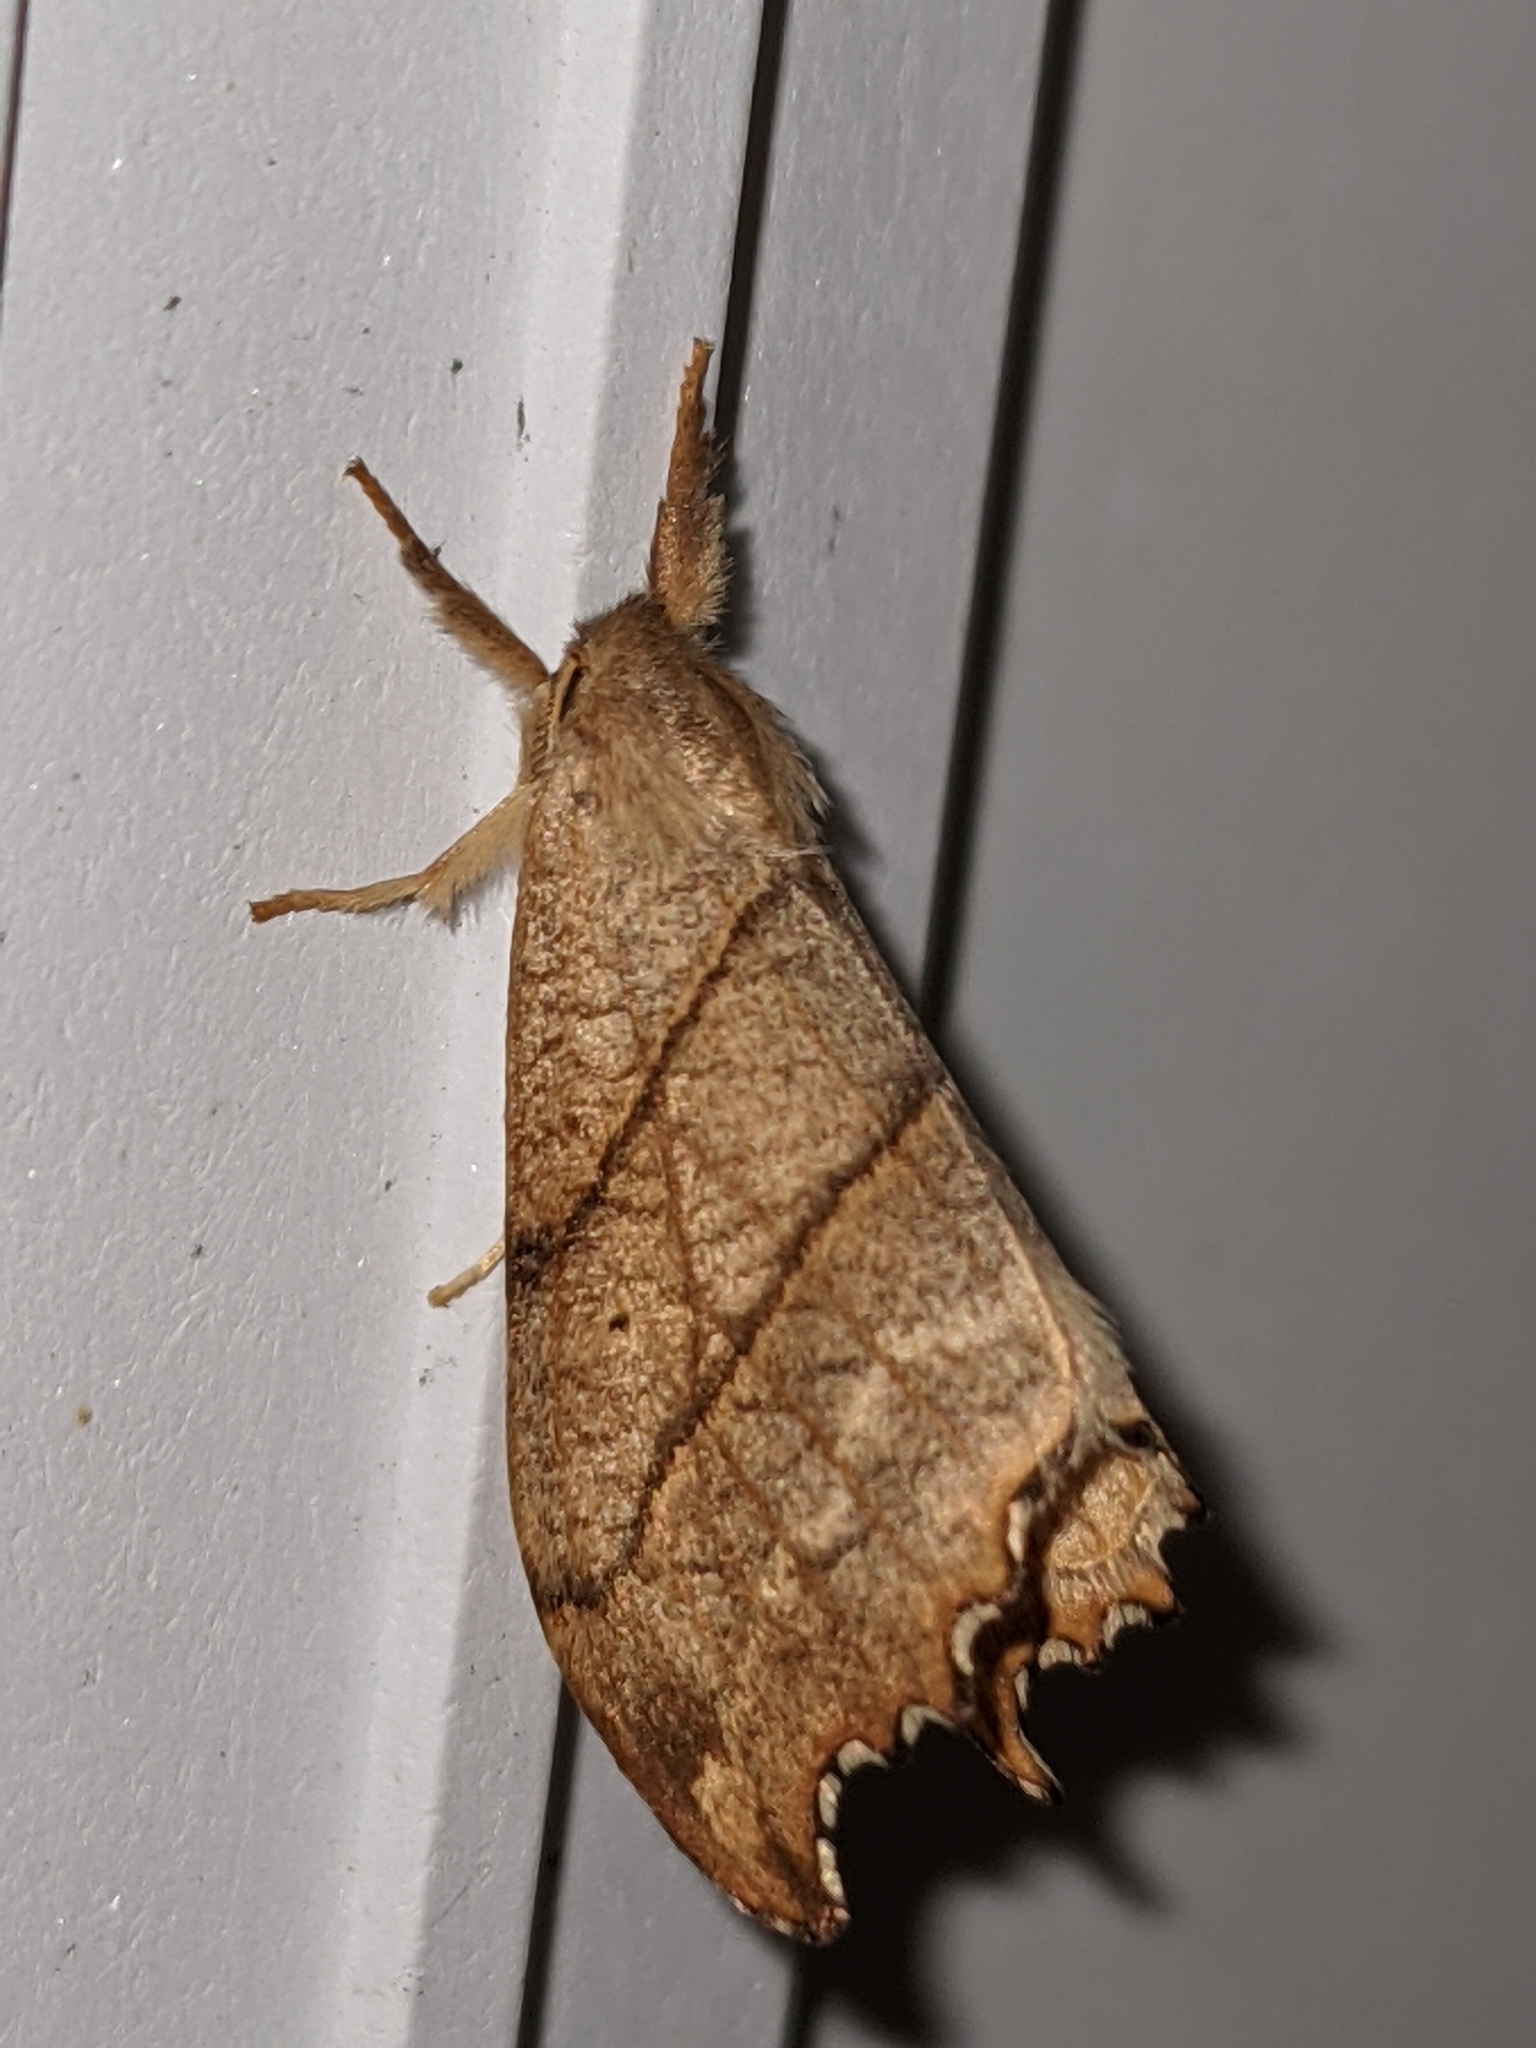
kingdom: Animalia
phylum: Arthropoda
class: Insecta
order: Lepidoptera
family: Drepanidae
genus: Falcaria
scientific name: Falcaria bilineata
